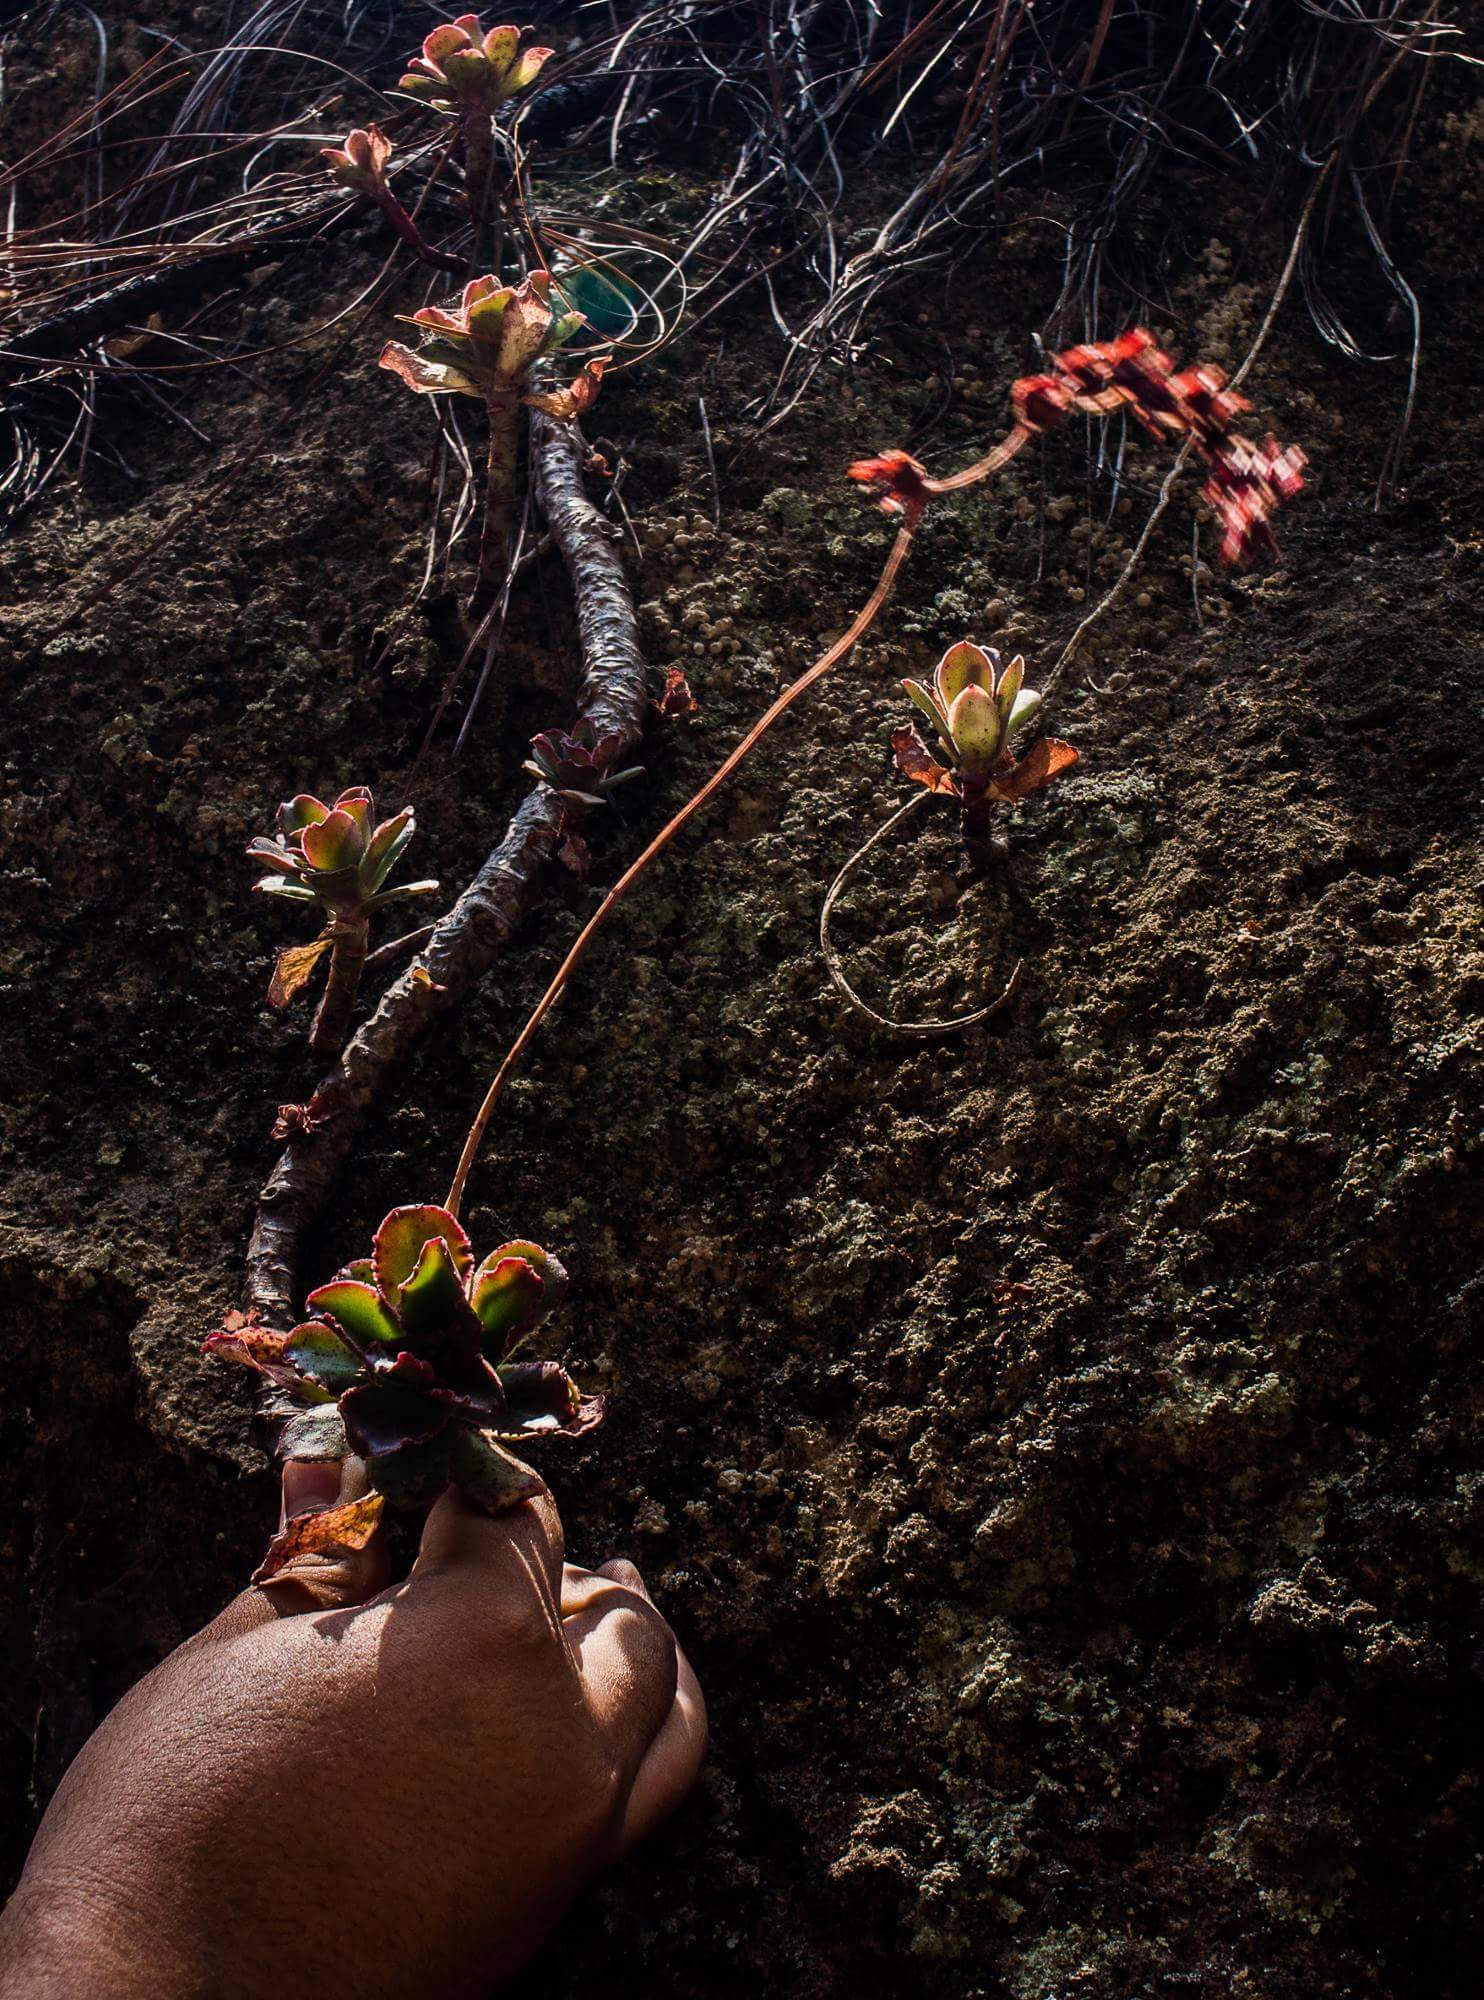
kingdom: Plantae
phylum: Tracheophyta
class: Magnoliopsida
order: Saxifragales
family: Crassulaceae
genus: Echeveria
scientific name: Echeveria fulgens
